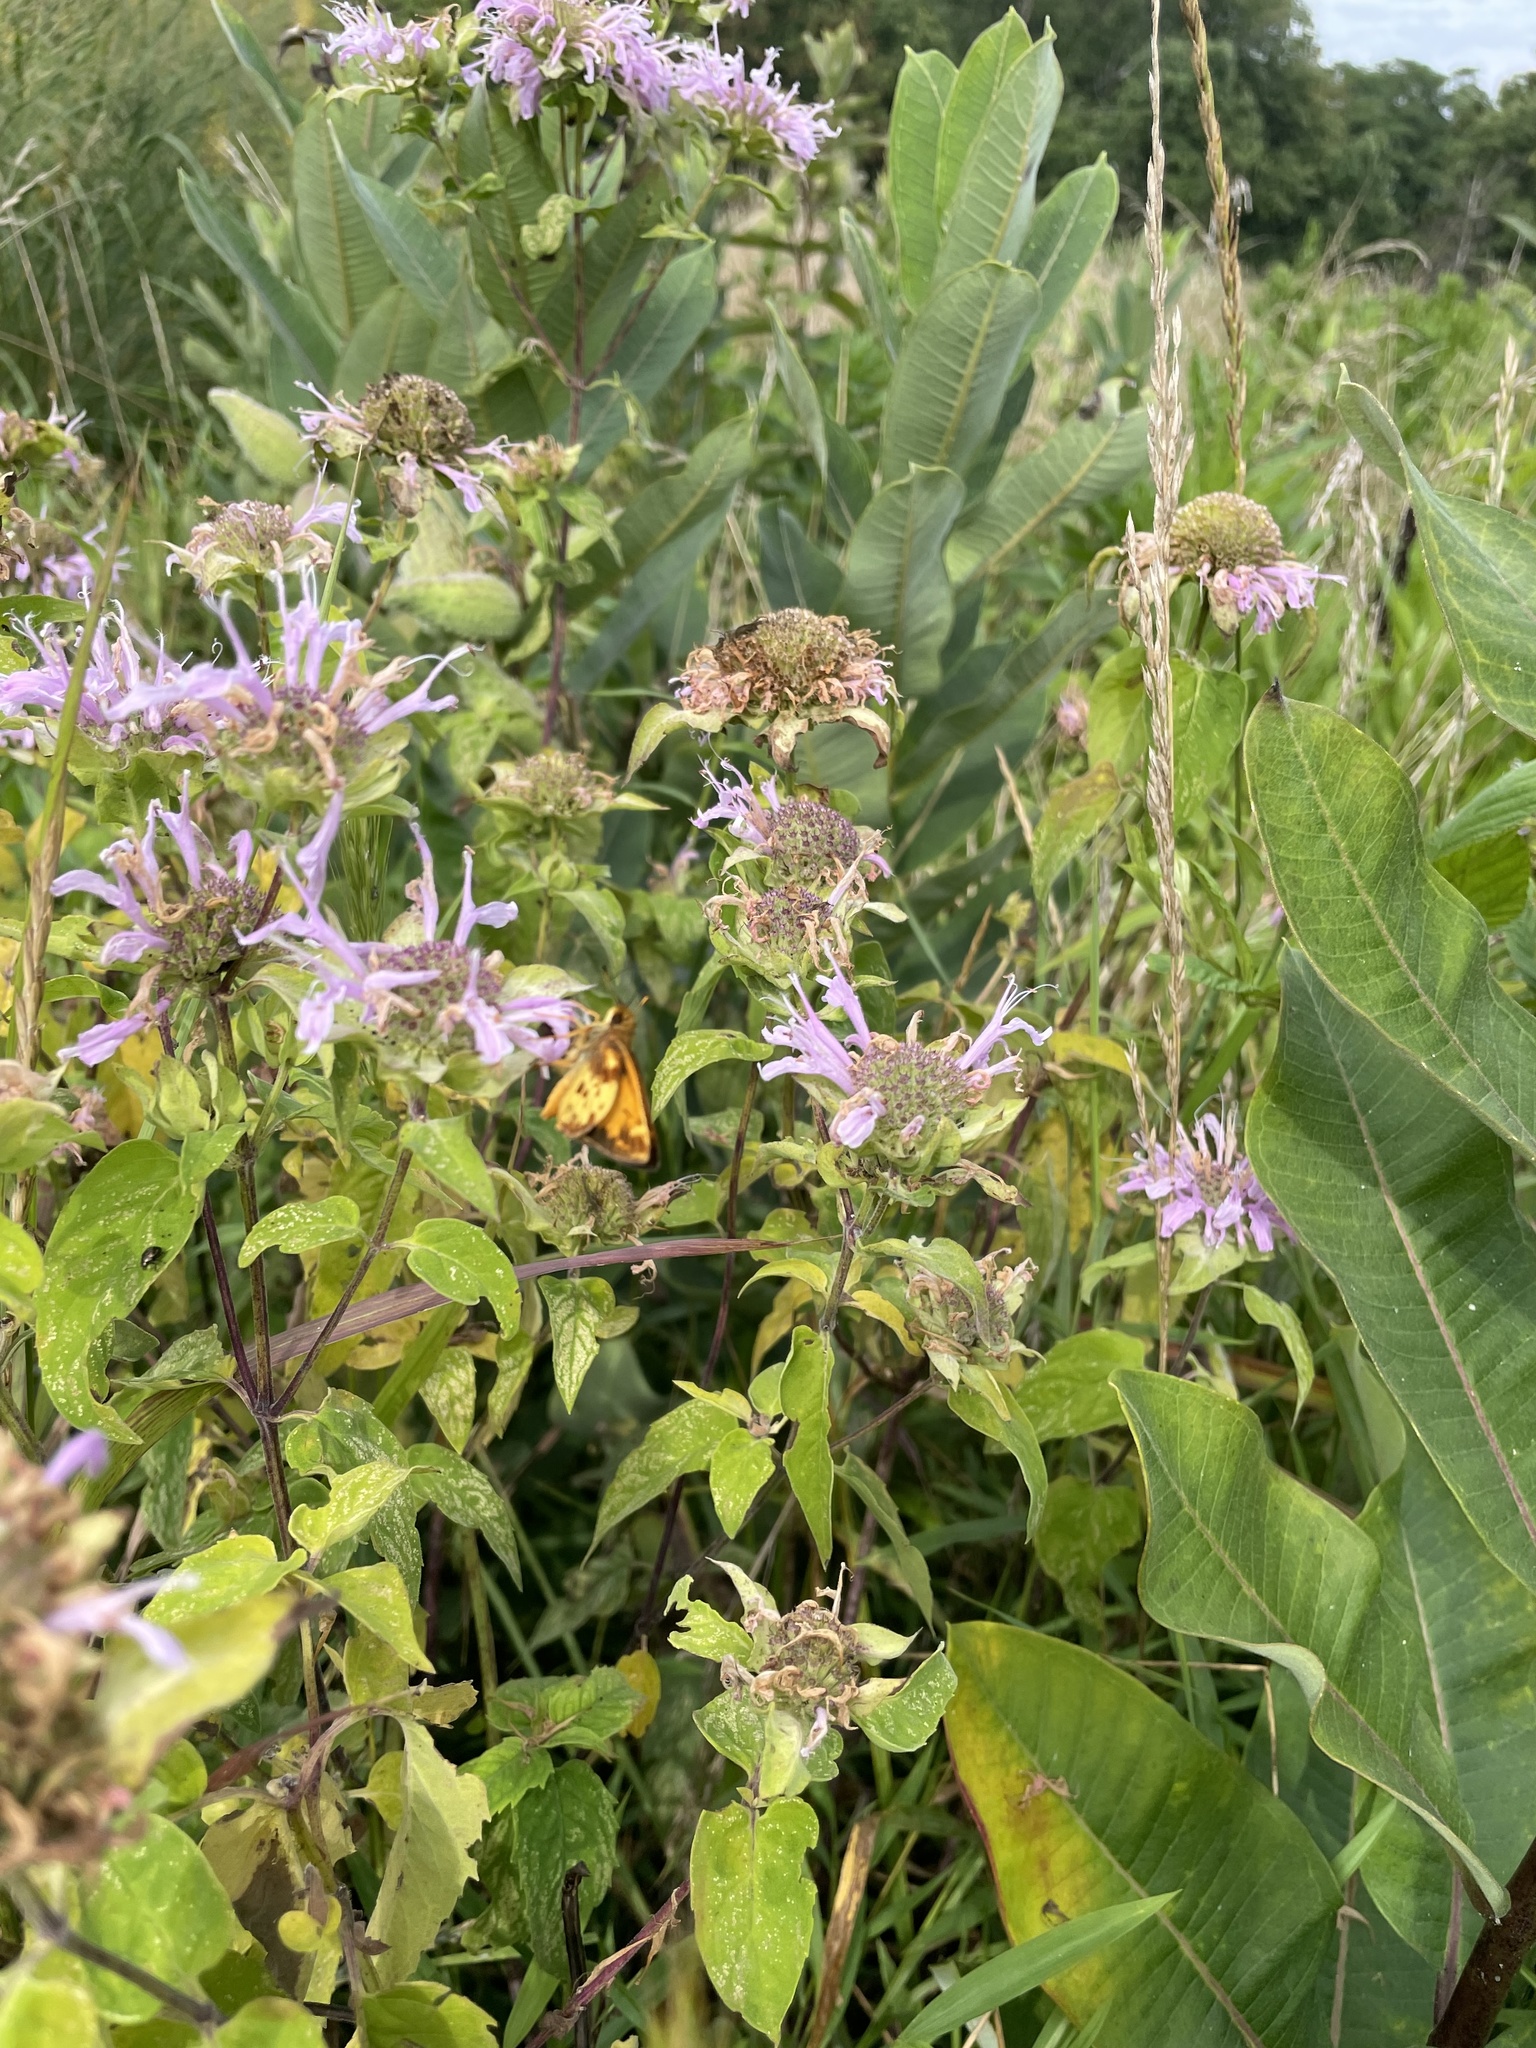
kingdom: Animalia
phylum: Arthropoda
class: Insecta
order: Lepidoptera
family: Hesperiidae
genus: Lon
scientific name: Lon zabulon
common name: Zabulon skipper
